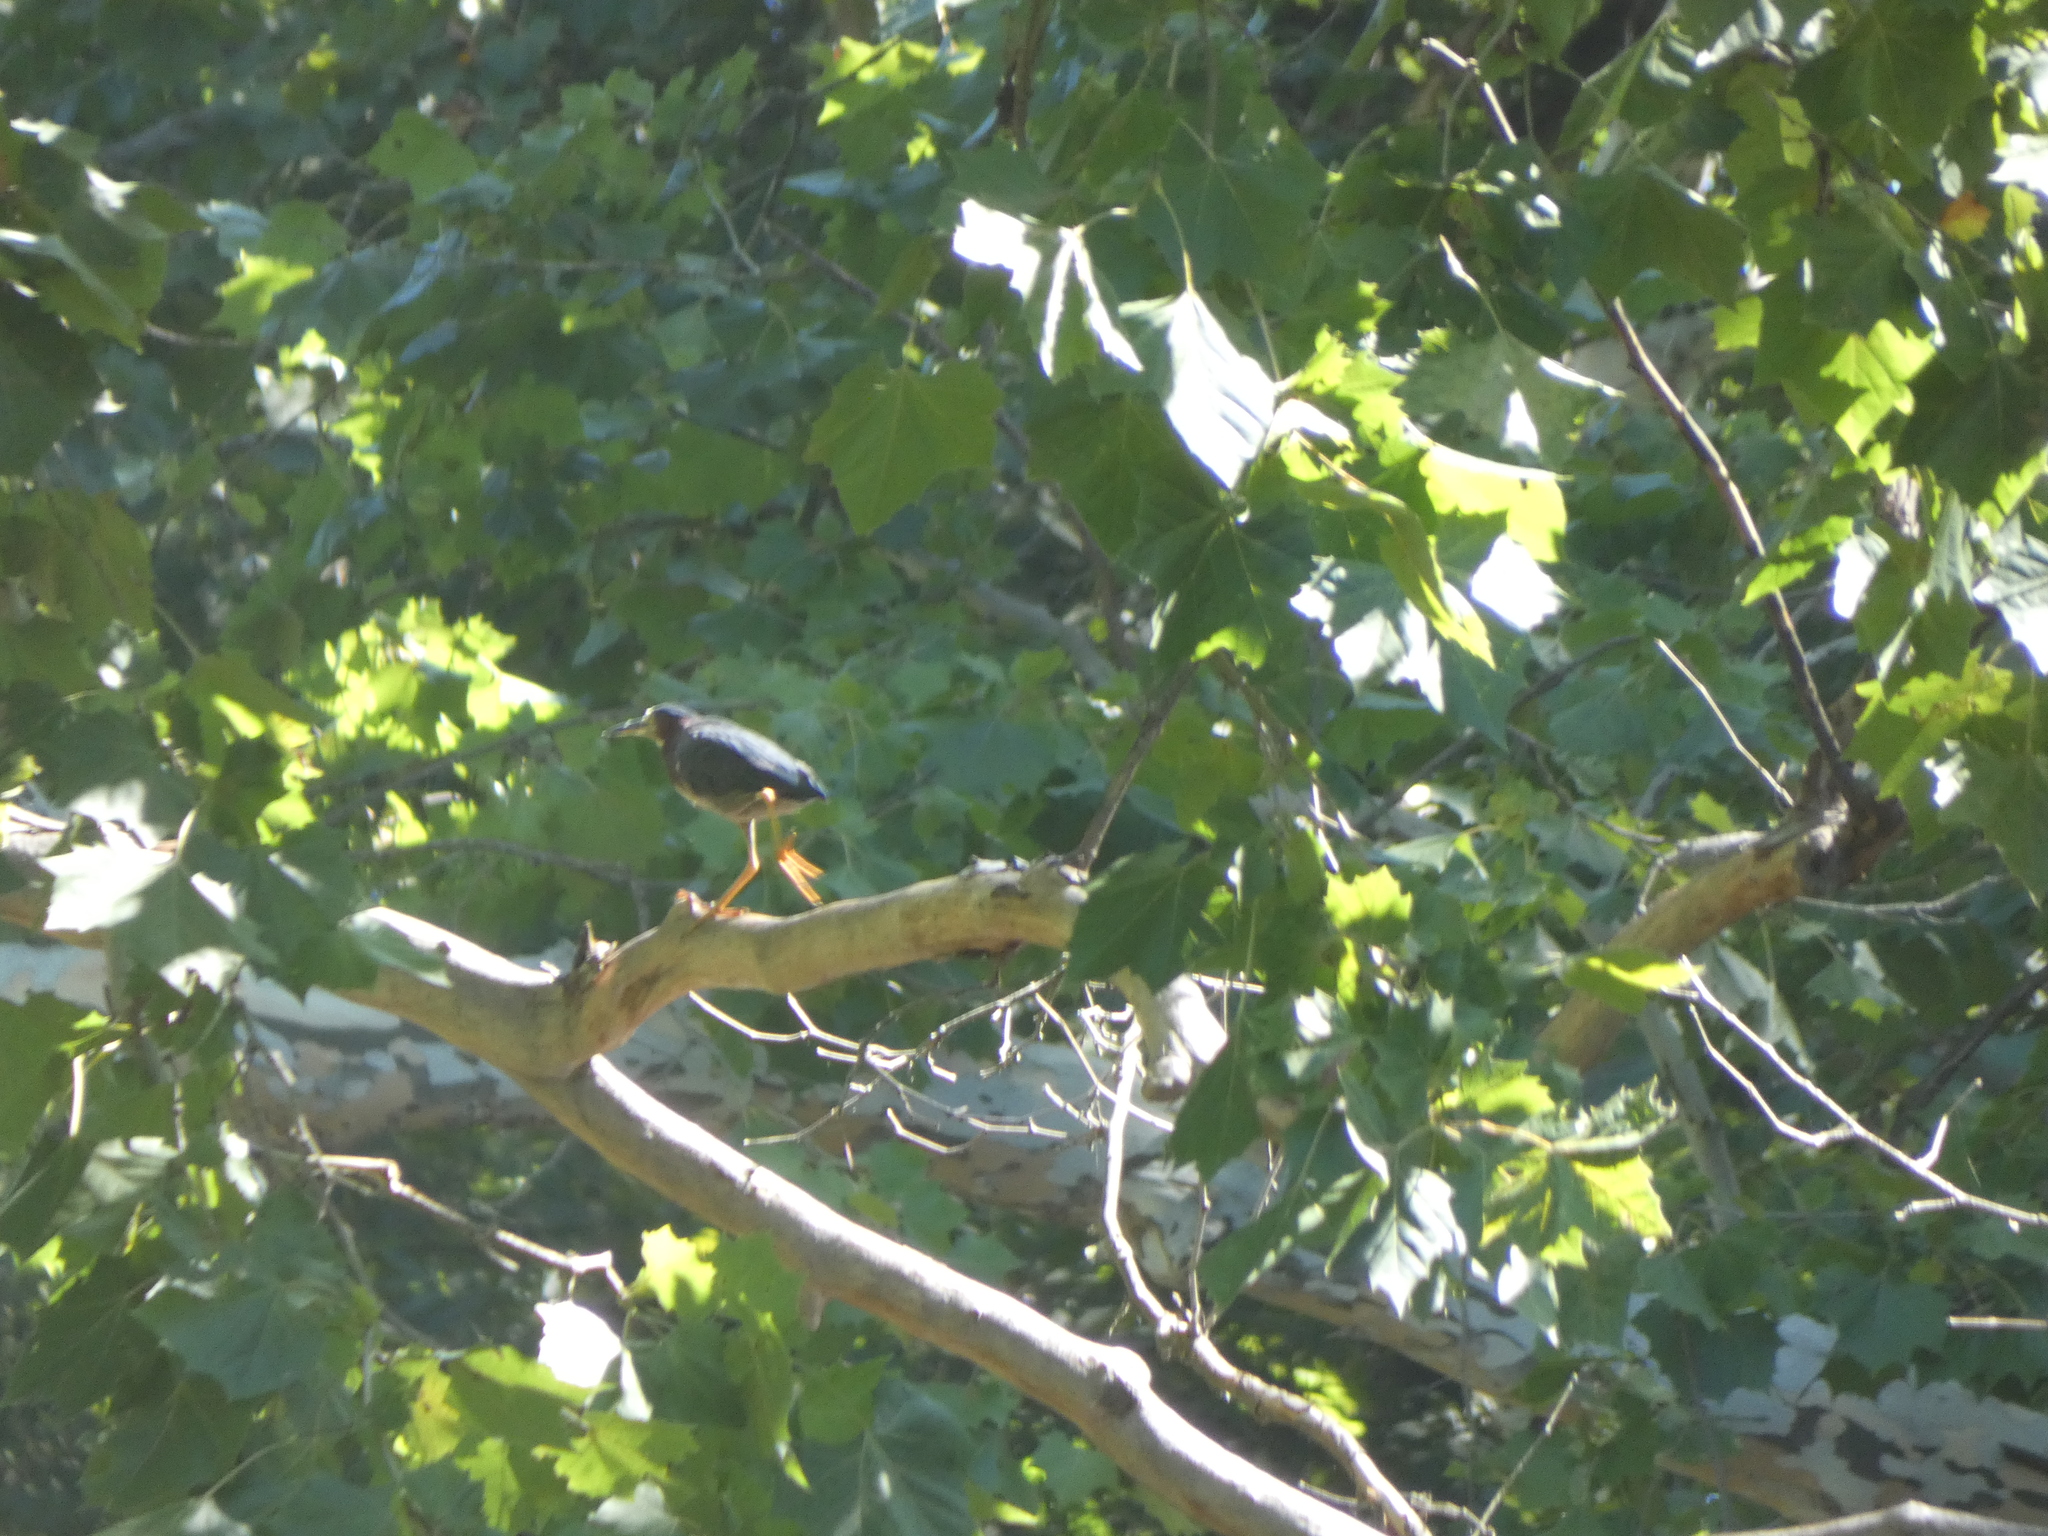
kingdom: Animalia
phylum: Chordata
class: Aves
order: Pelecaniformes
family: Ardeidae
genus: Butorides
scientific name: Butorides virescens
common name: Green heron
